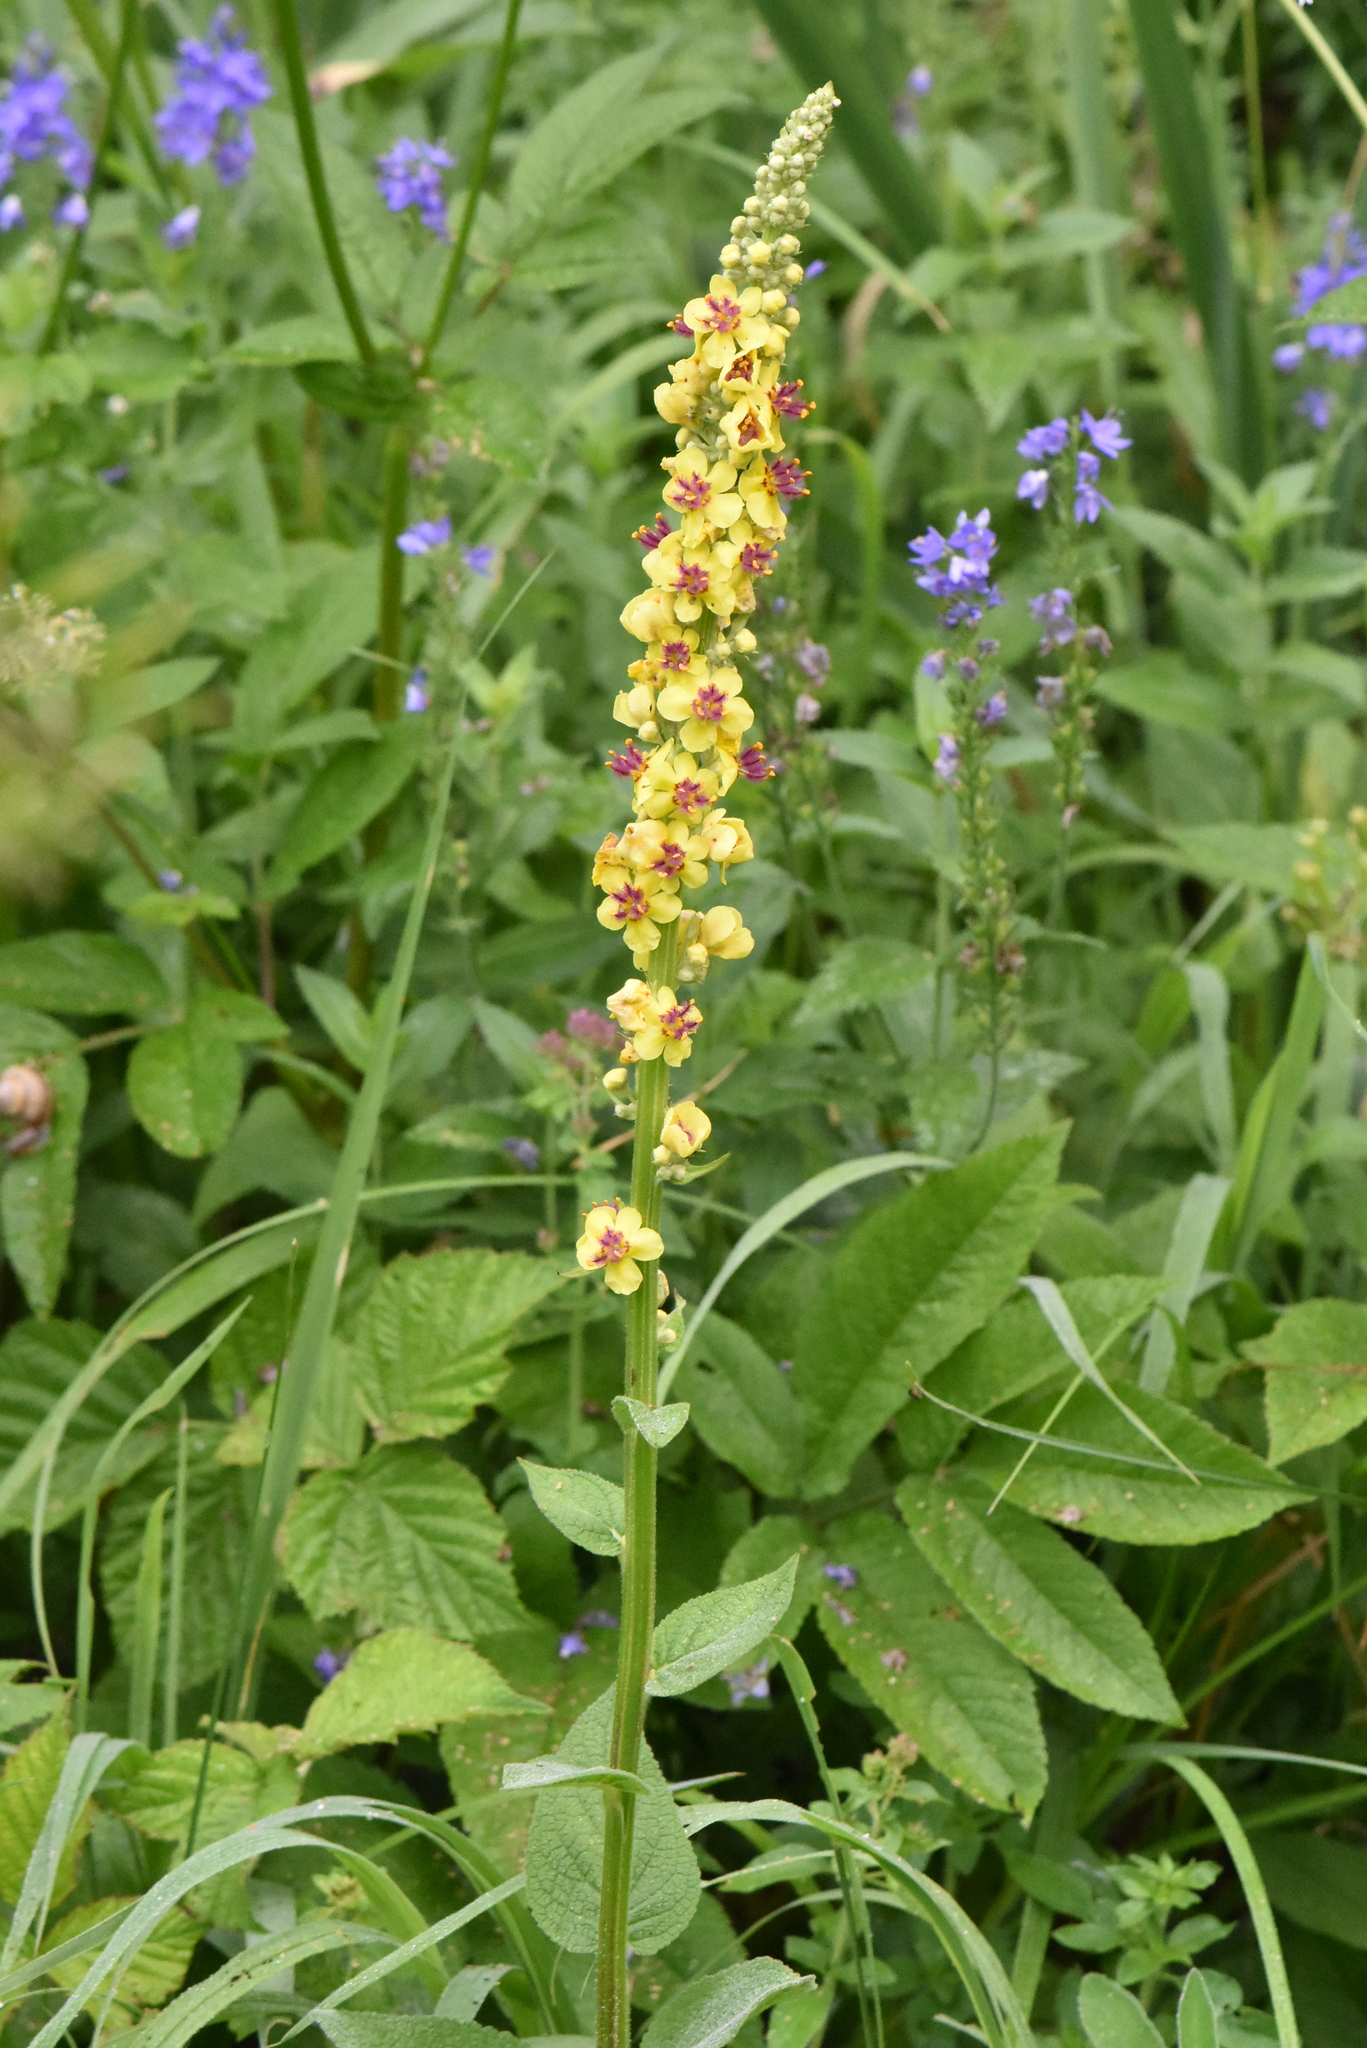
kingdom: Plantae
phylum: Tracheophyta
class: Magnoliopsida
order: Lamiales
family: Scrophulariaceae
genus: Verbascum
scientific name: Verbascum nigrum
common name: Dark mullein
